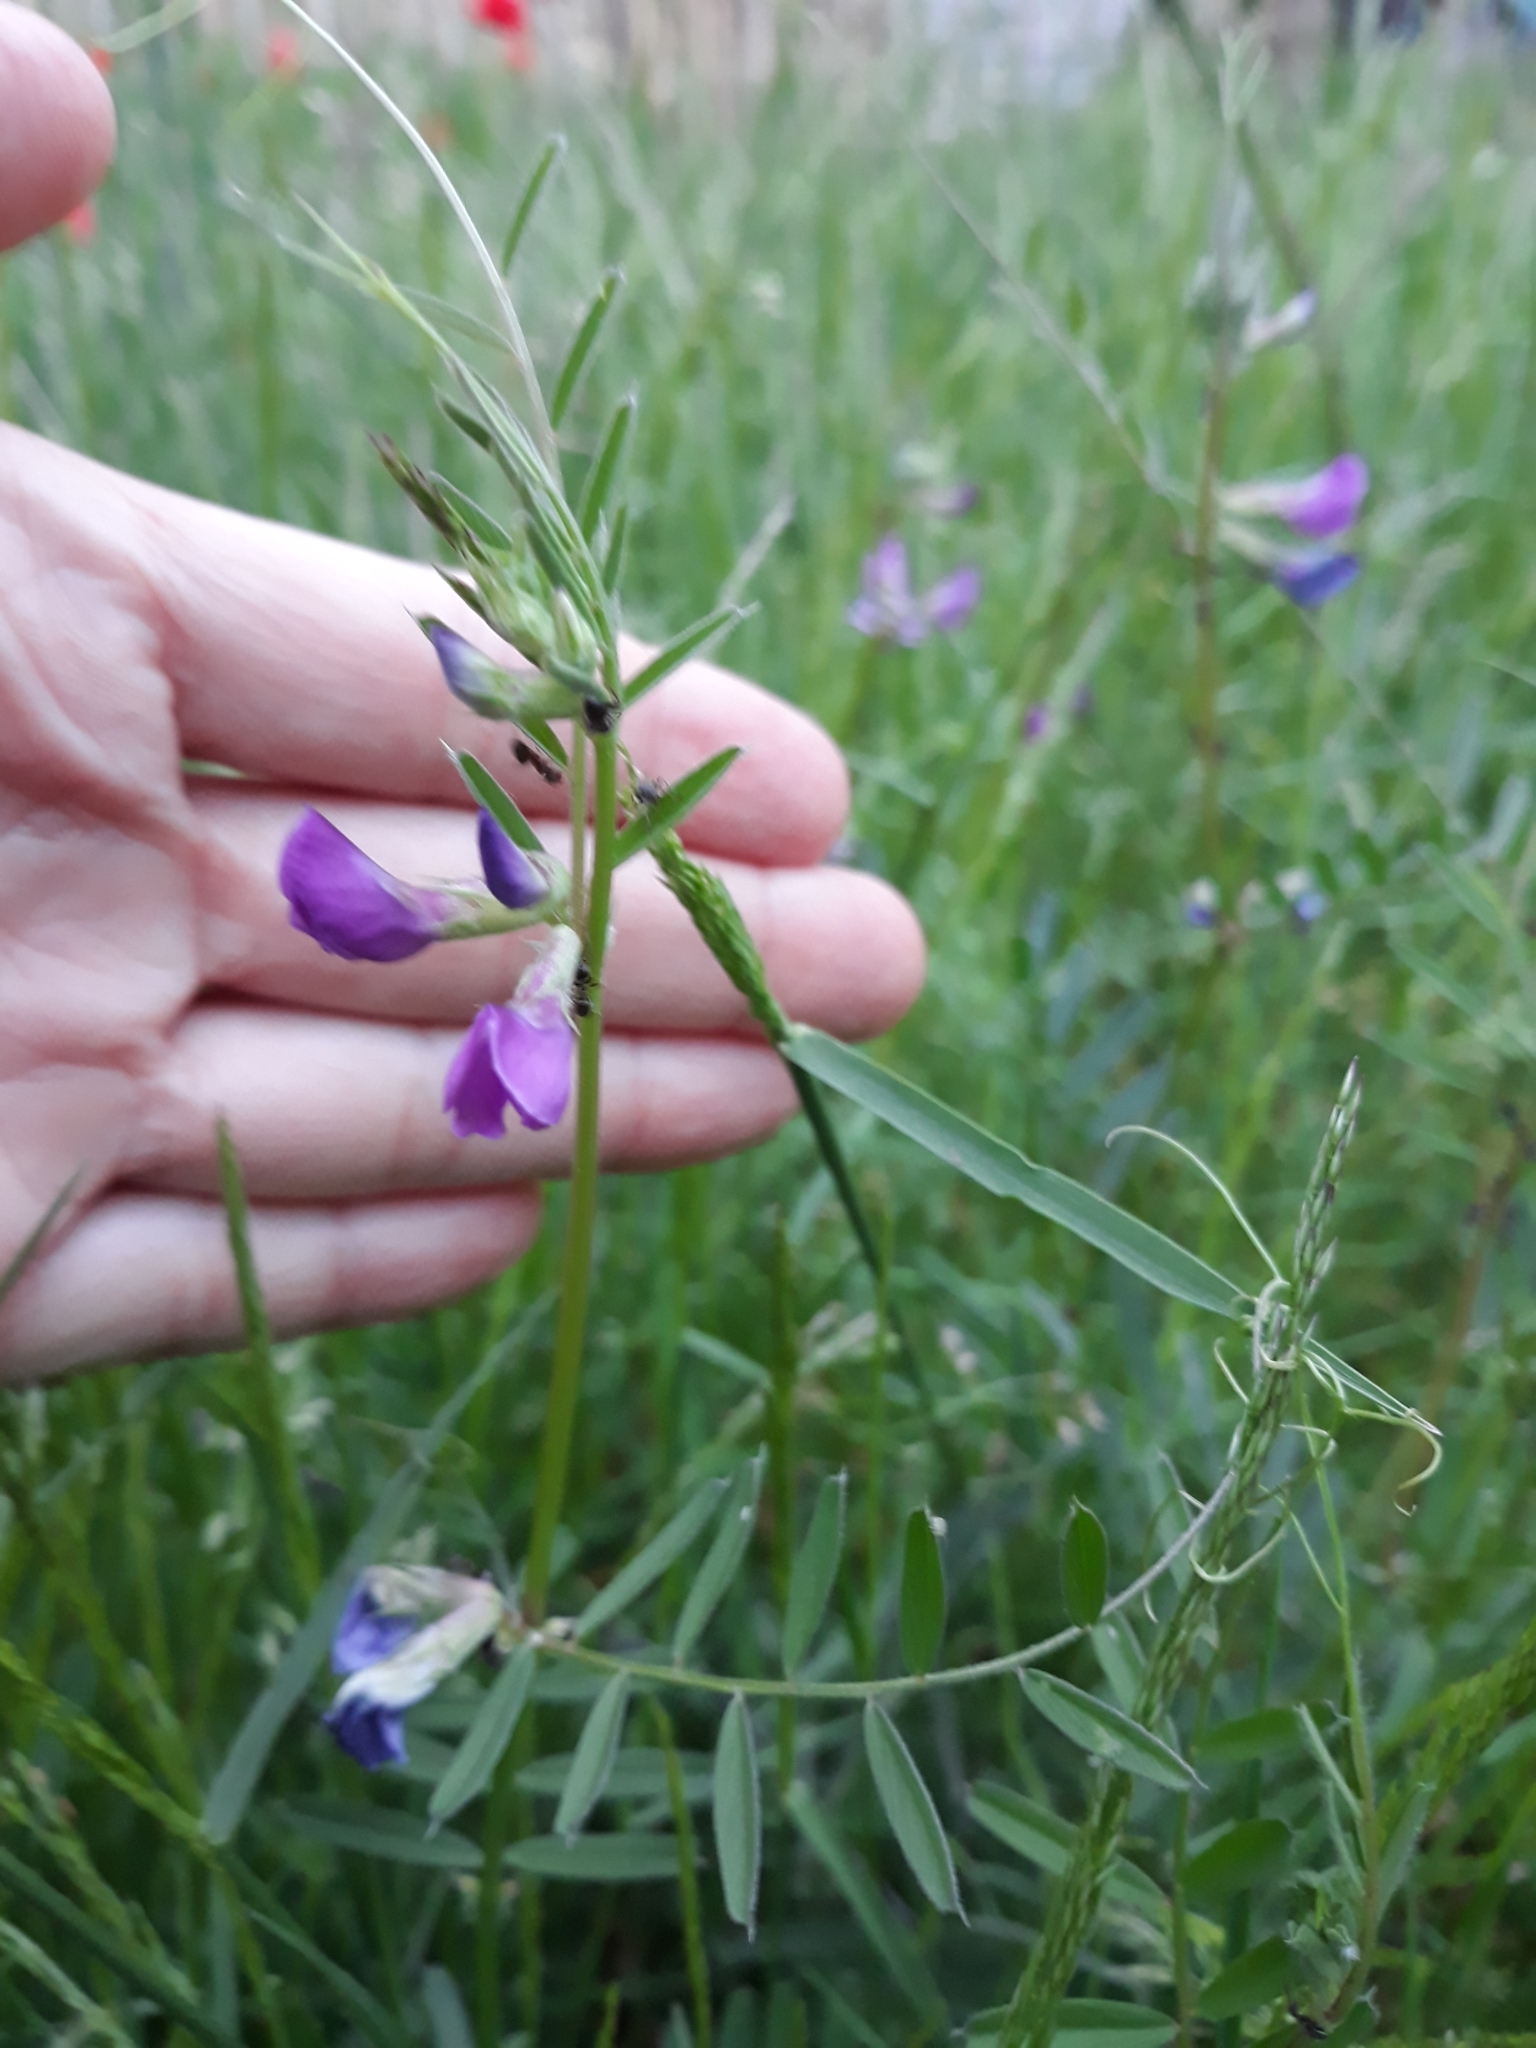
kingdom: Plantae
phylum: Tracheophyta
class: Magnoliopsida
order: Fabales
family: Fabaceae
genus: Vicia
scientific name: Vicia sativa
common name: Garden vetch
